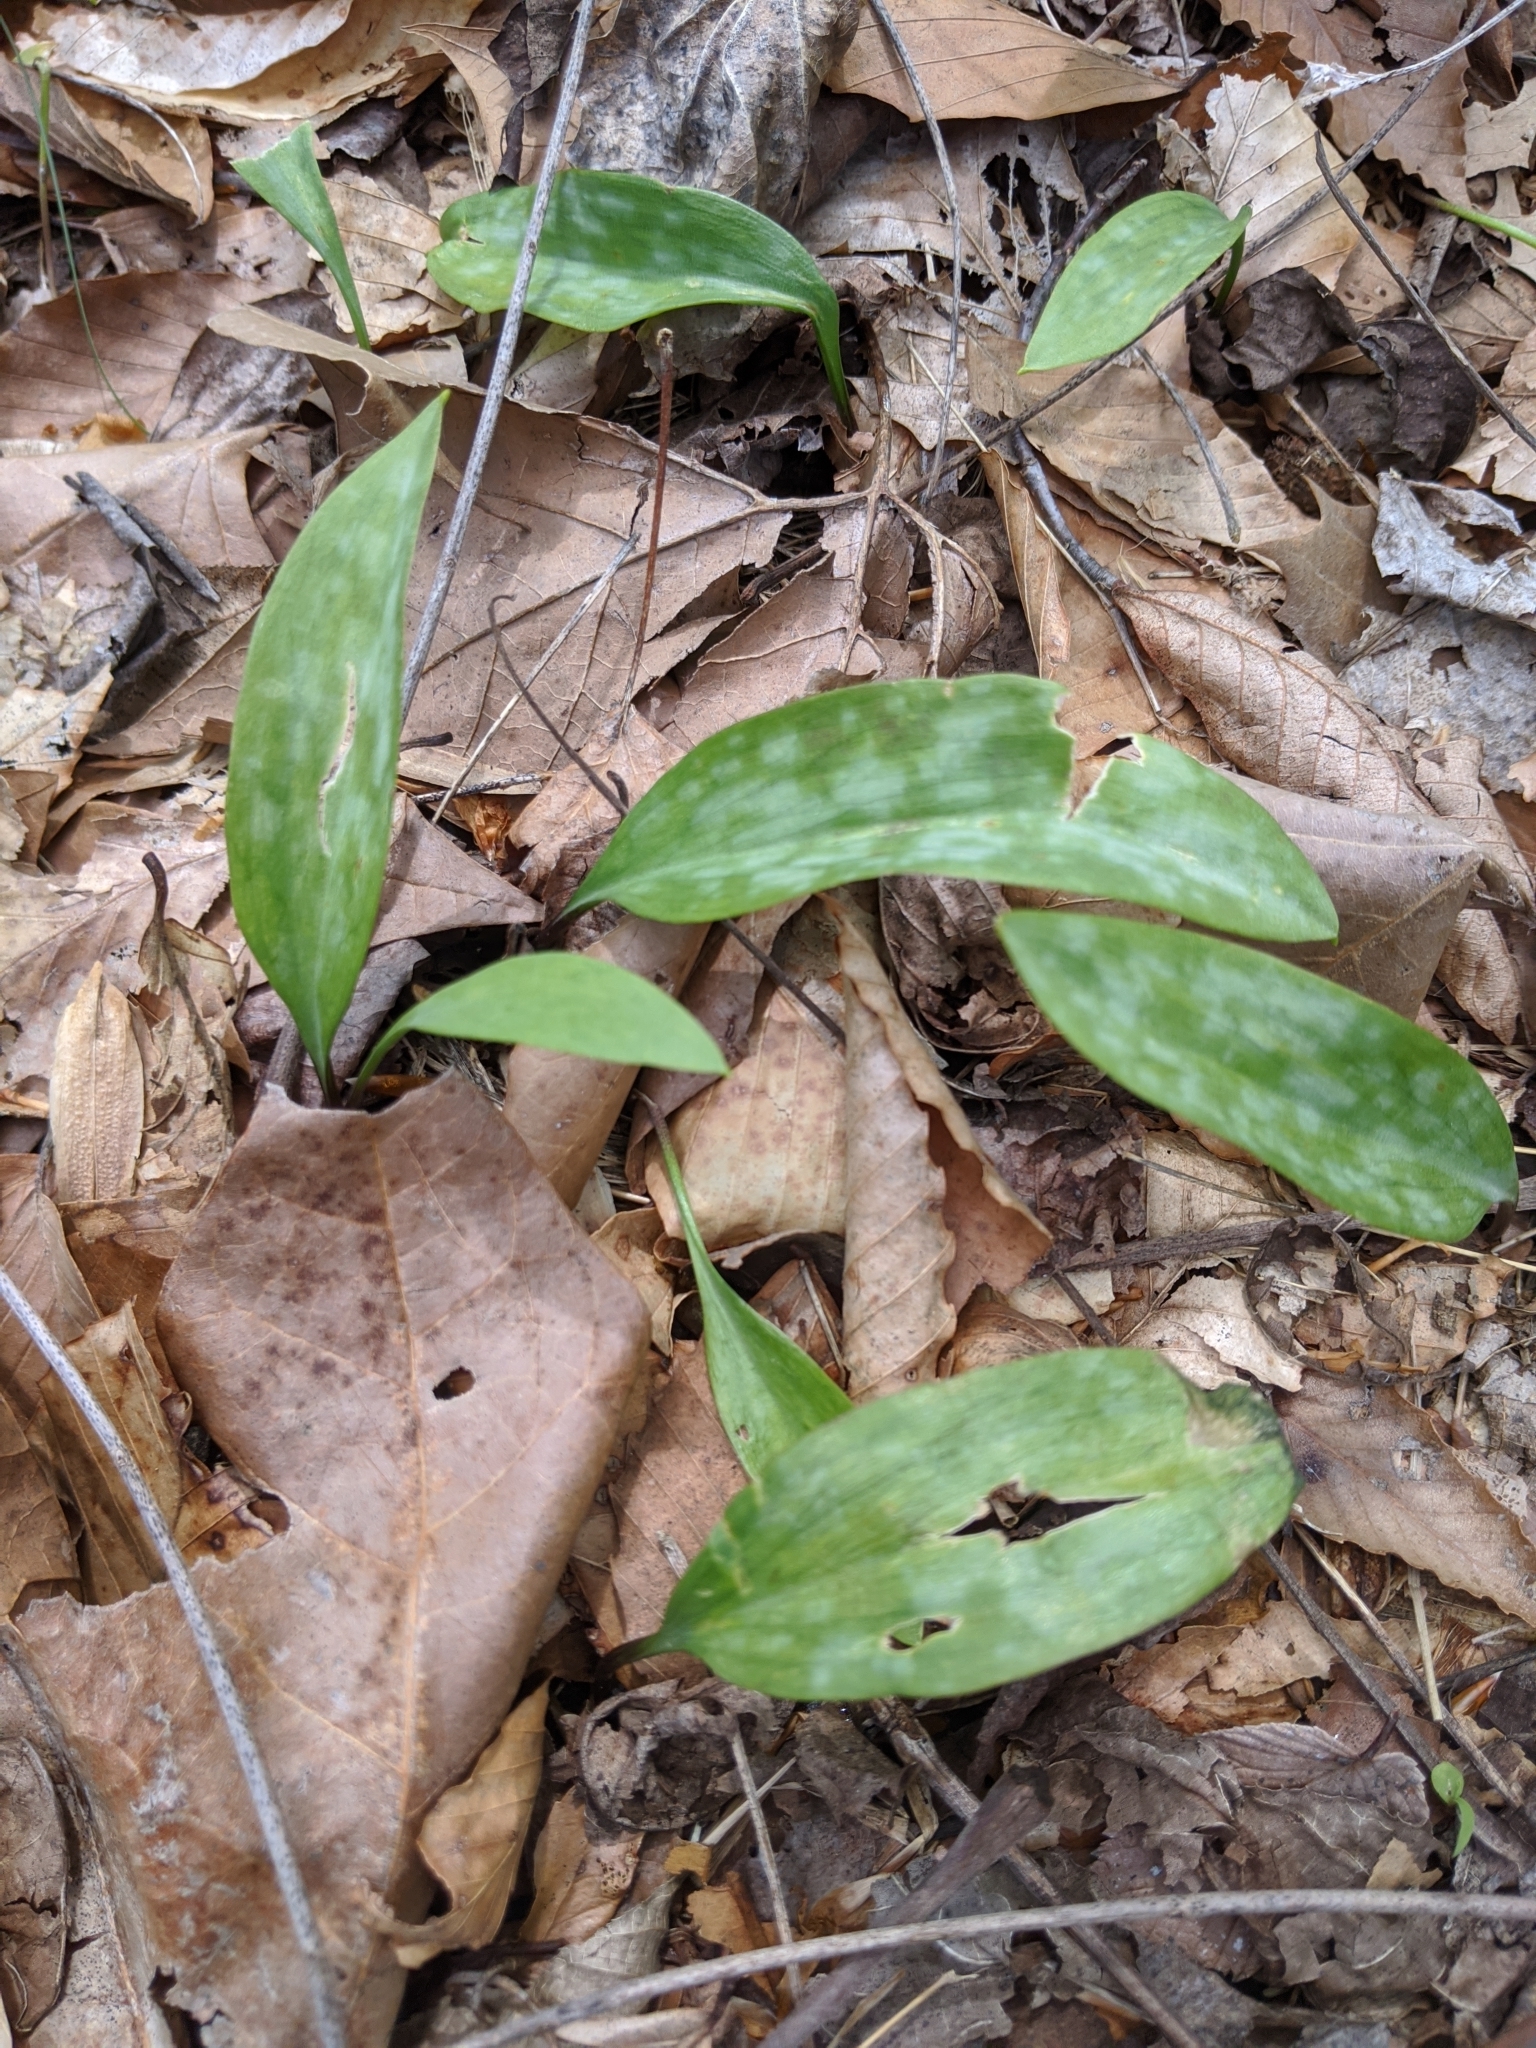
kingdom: Plantae
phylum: Tracheophyta
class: Liliopsida
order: Liliales
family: Liliaceae
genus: Erythronium
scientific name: Erythronium americanum
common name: Yellow adder's-tongue
